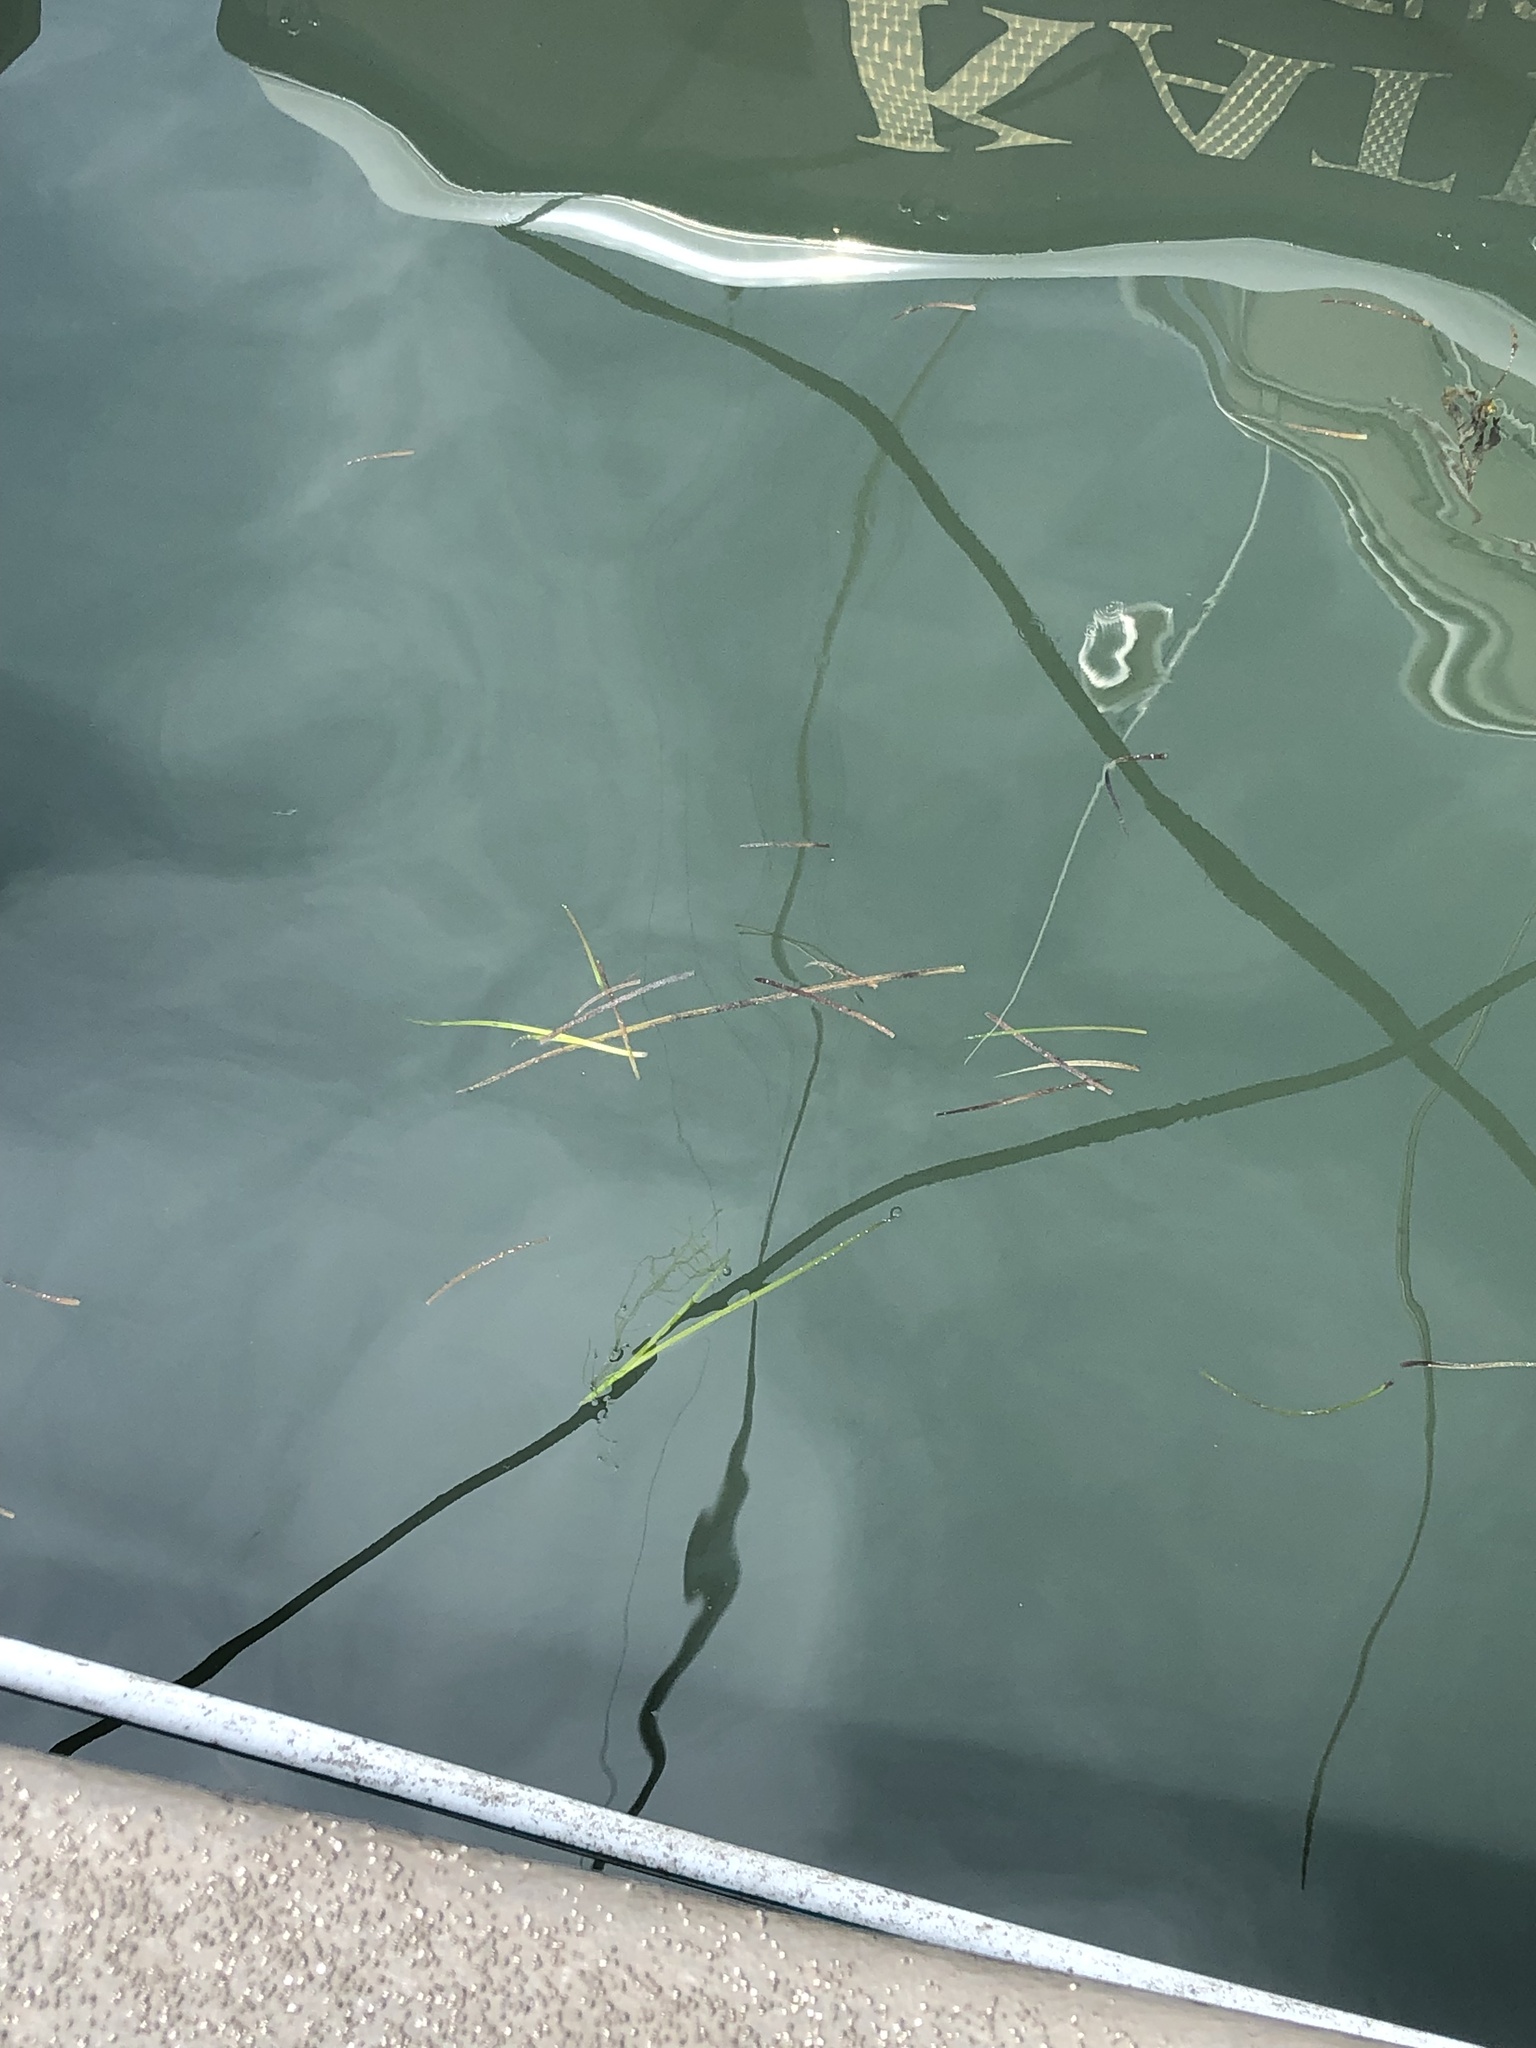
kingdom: Plantae
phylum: Tracheophyta
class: Liliopsida
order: Alismatales
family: Zosteraceae
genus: Zostera
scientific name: Zostera marina
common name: Eelgrass
